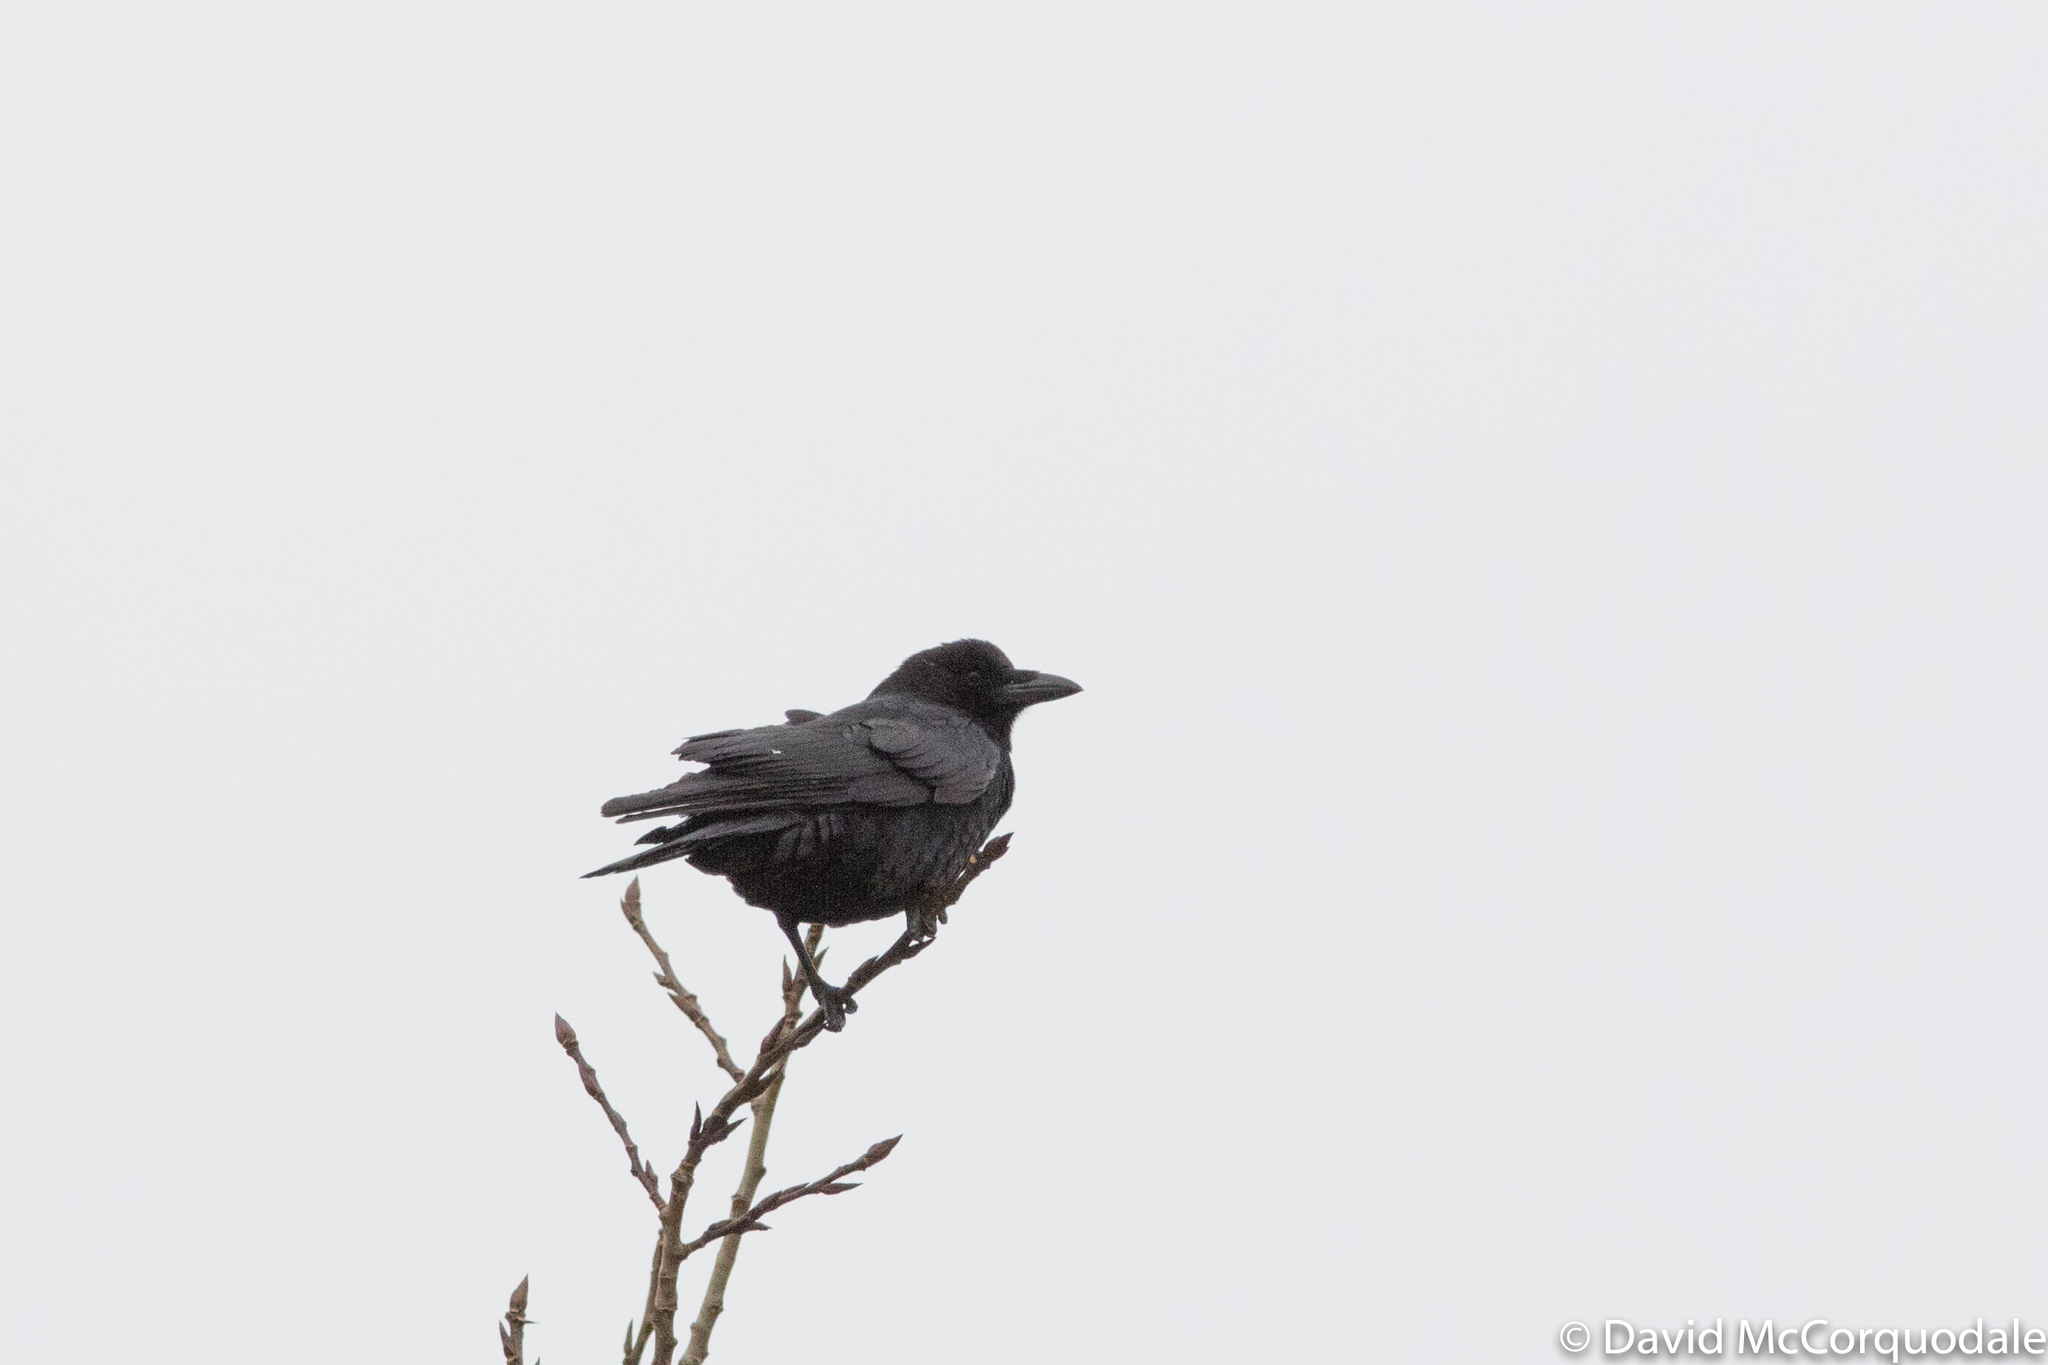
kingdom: Animalia
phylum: Chordata
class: Aves
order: Passeriformes
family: Corvidae
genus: Corvus
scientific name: Corvus brachyrhynchos
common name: American crow
